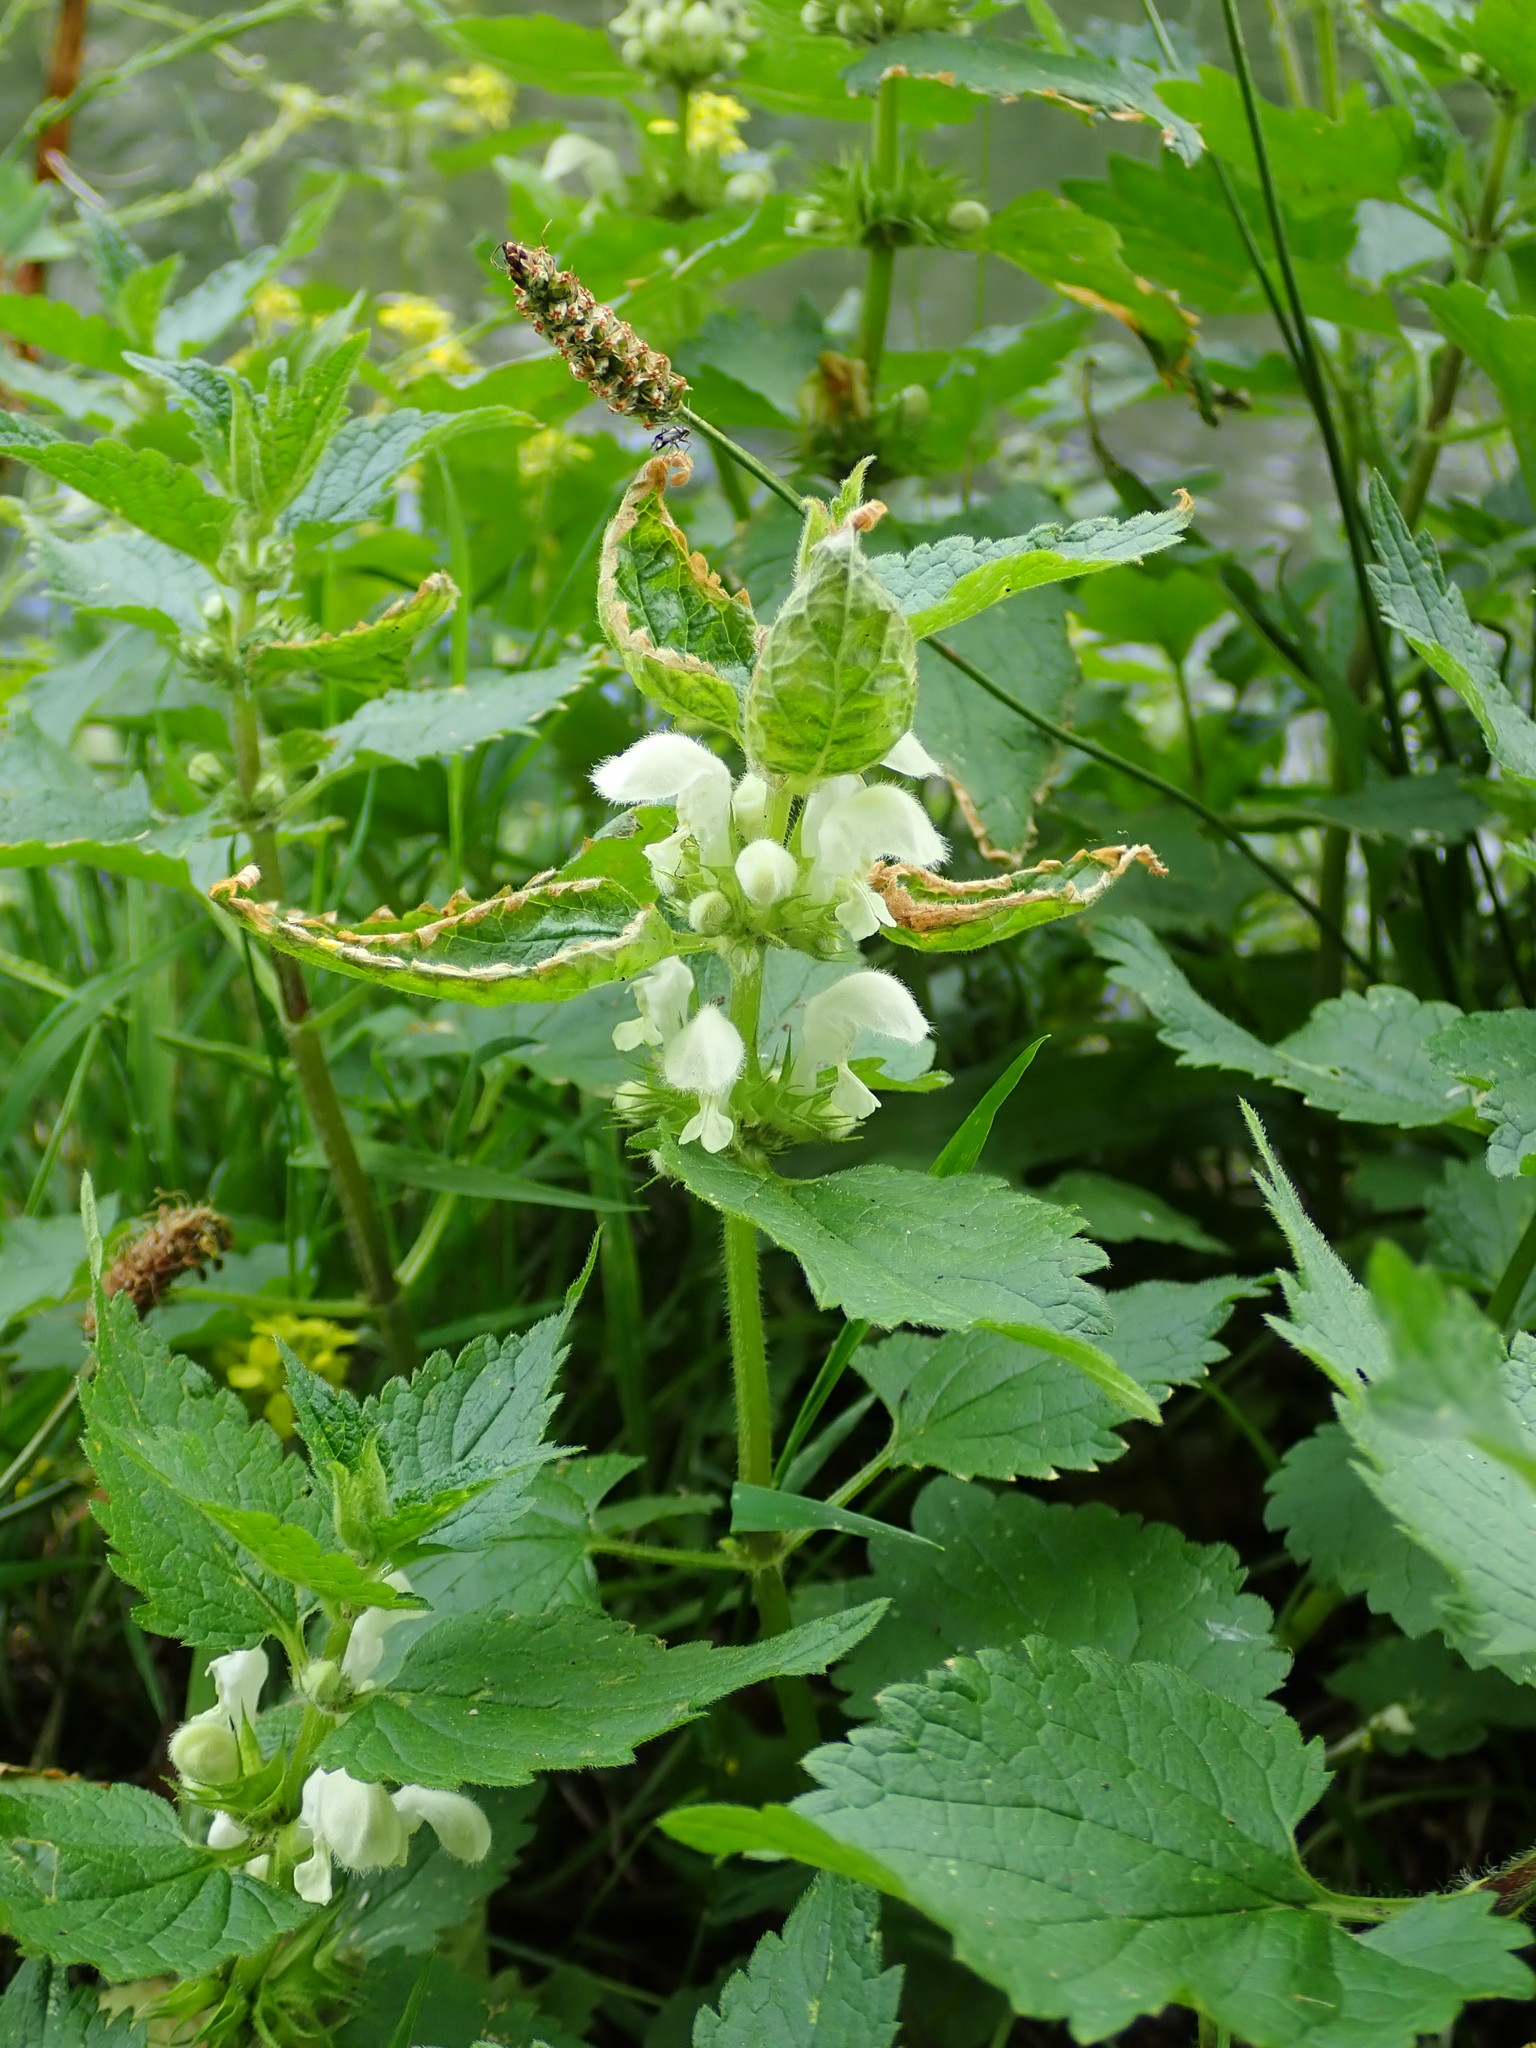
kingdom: Plantae
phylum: Tracheophyta
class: Magnoliopsida
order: Lamiales
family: Lamiaceae
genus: Lamium
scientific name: Lamium album
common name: White dead-nettle
